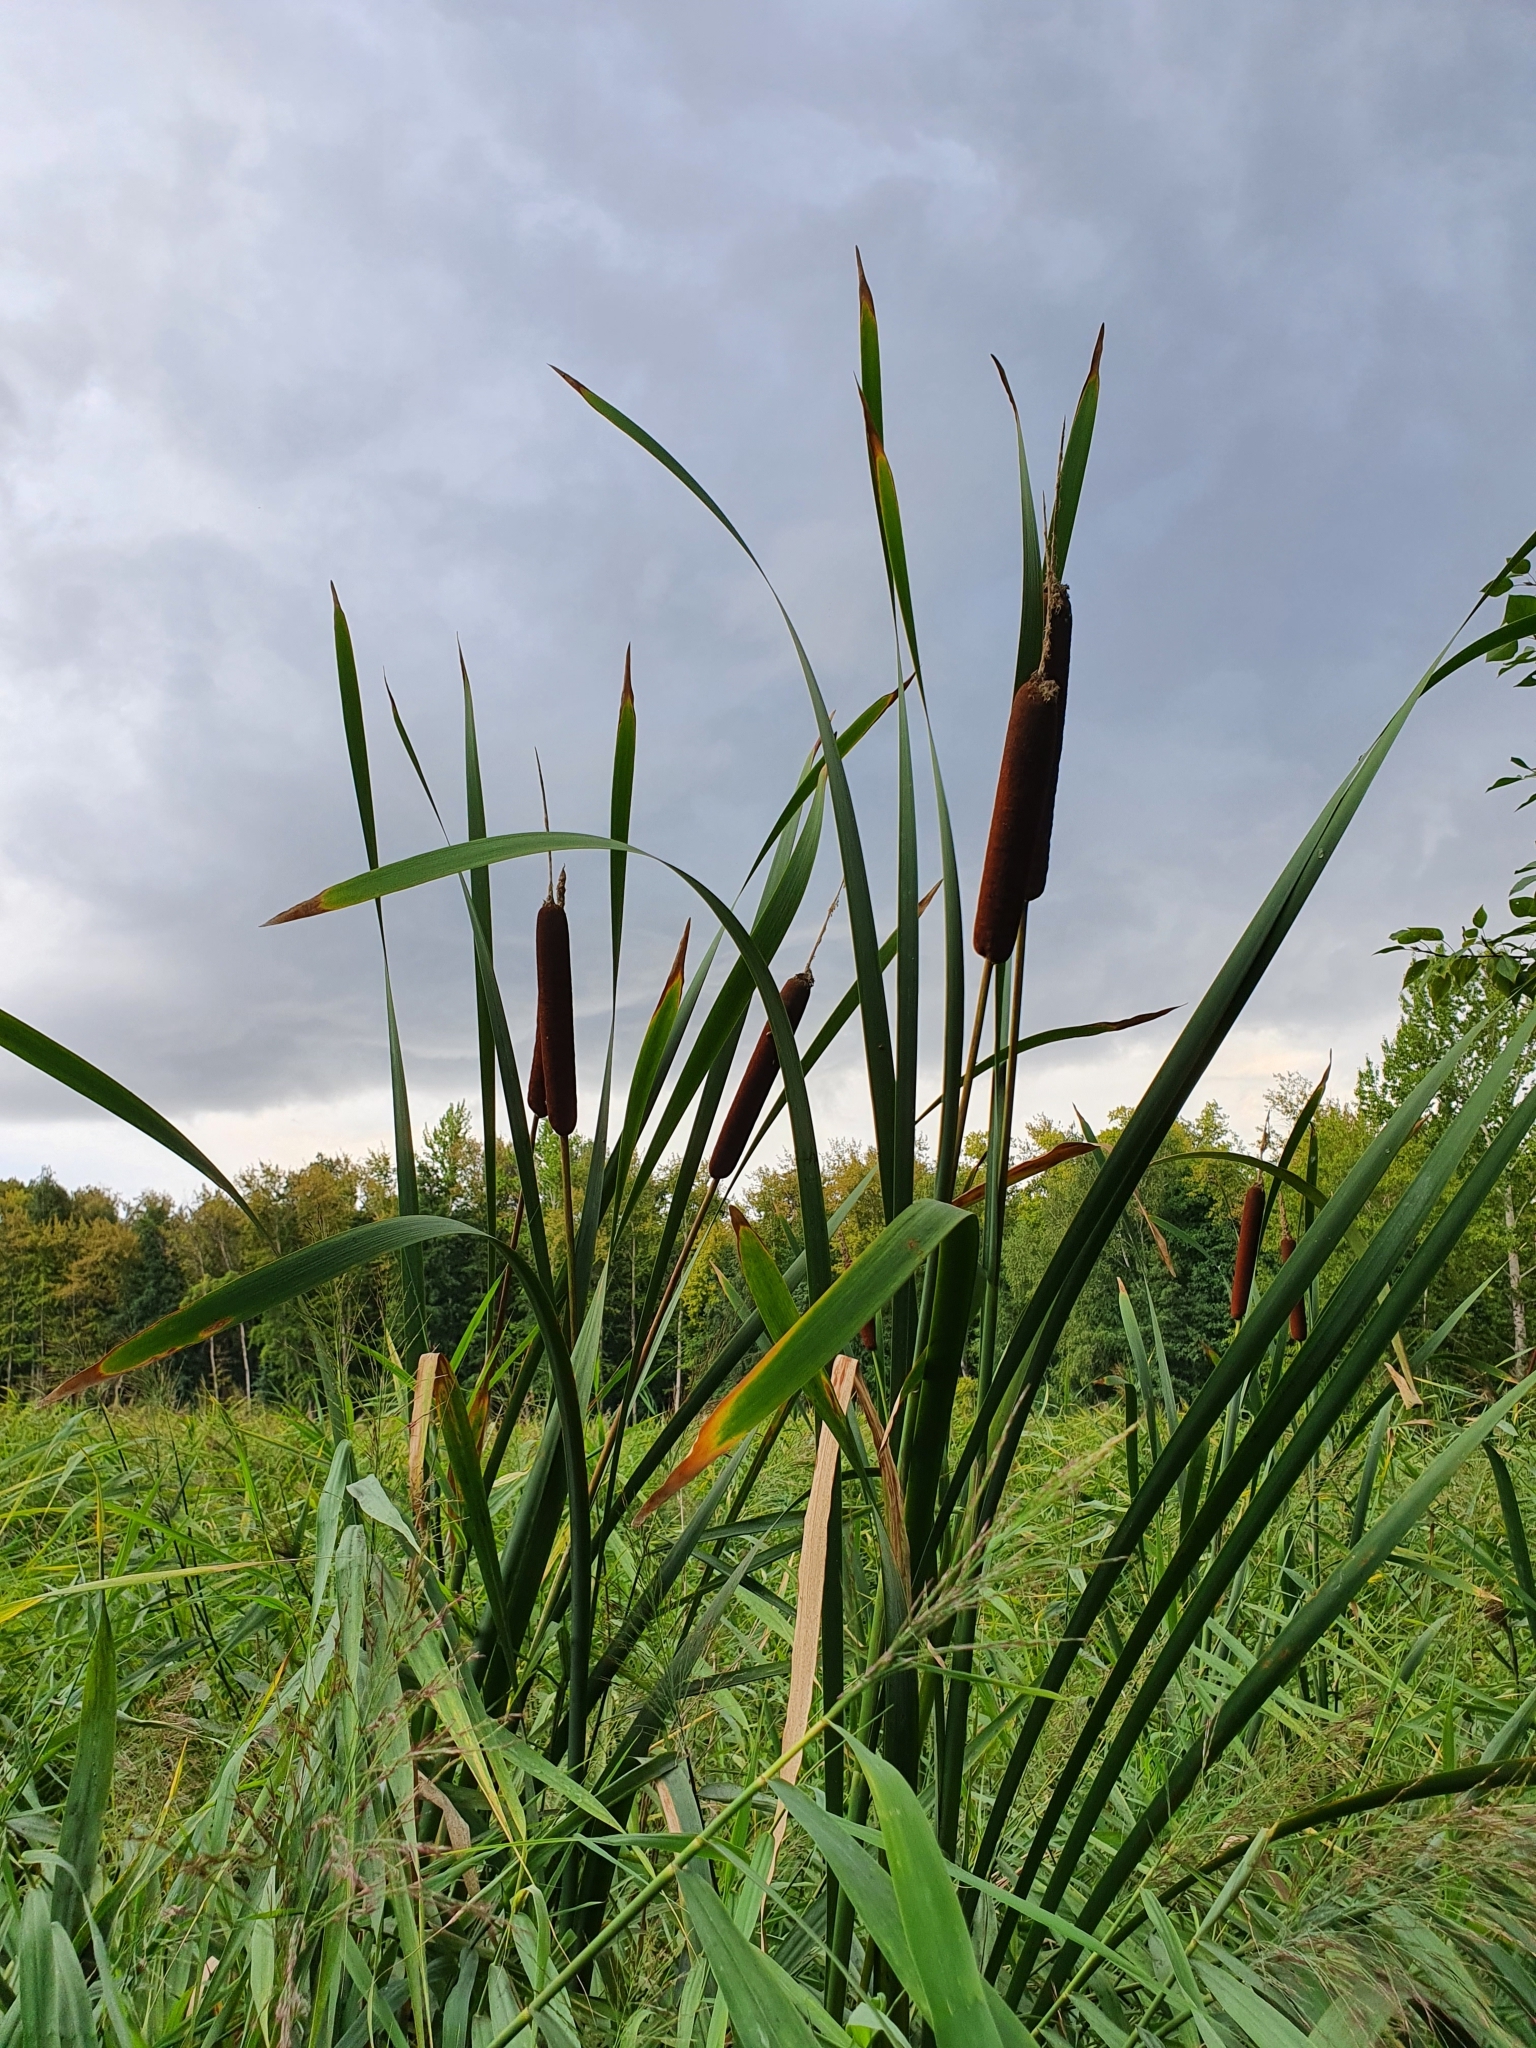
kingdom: Plantae
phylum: Tracheophyta
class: Liliopsida
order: Poales
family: Typhaceae
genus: Typha
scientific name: Typha latifolia
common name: Broadleaf cattail
